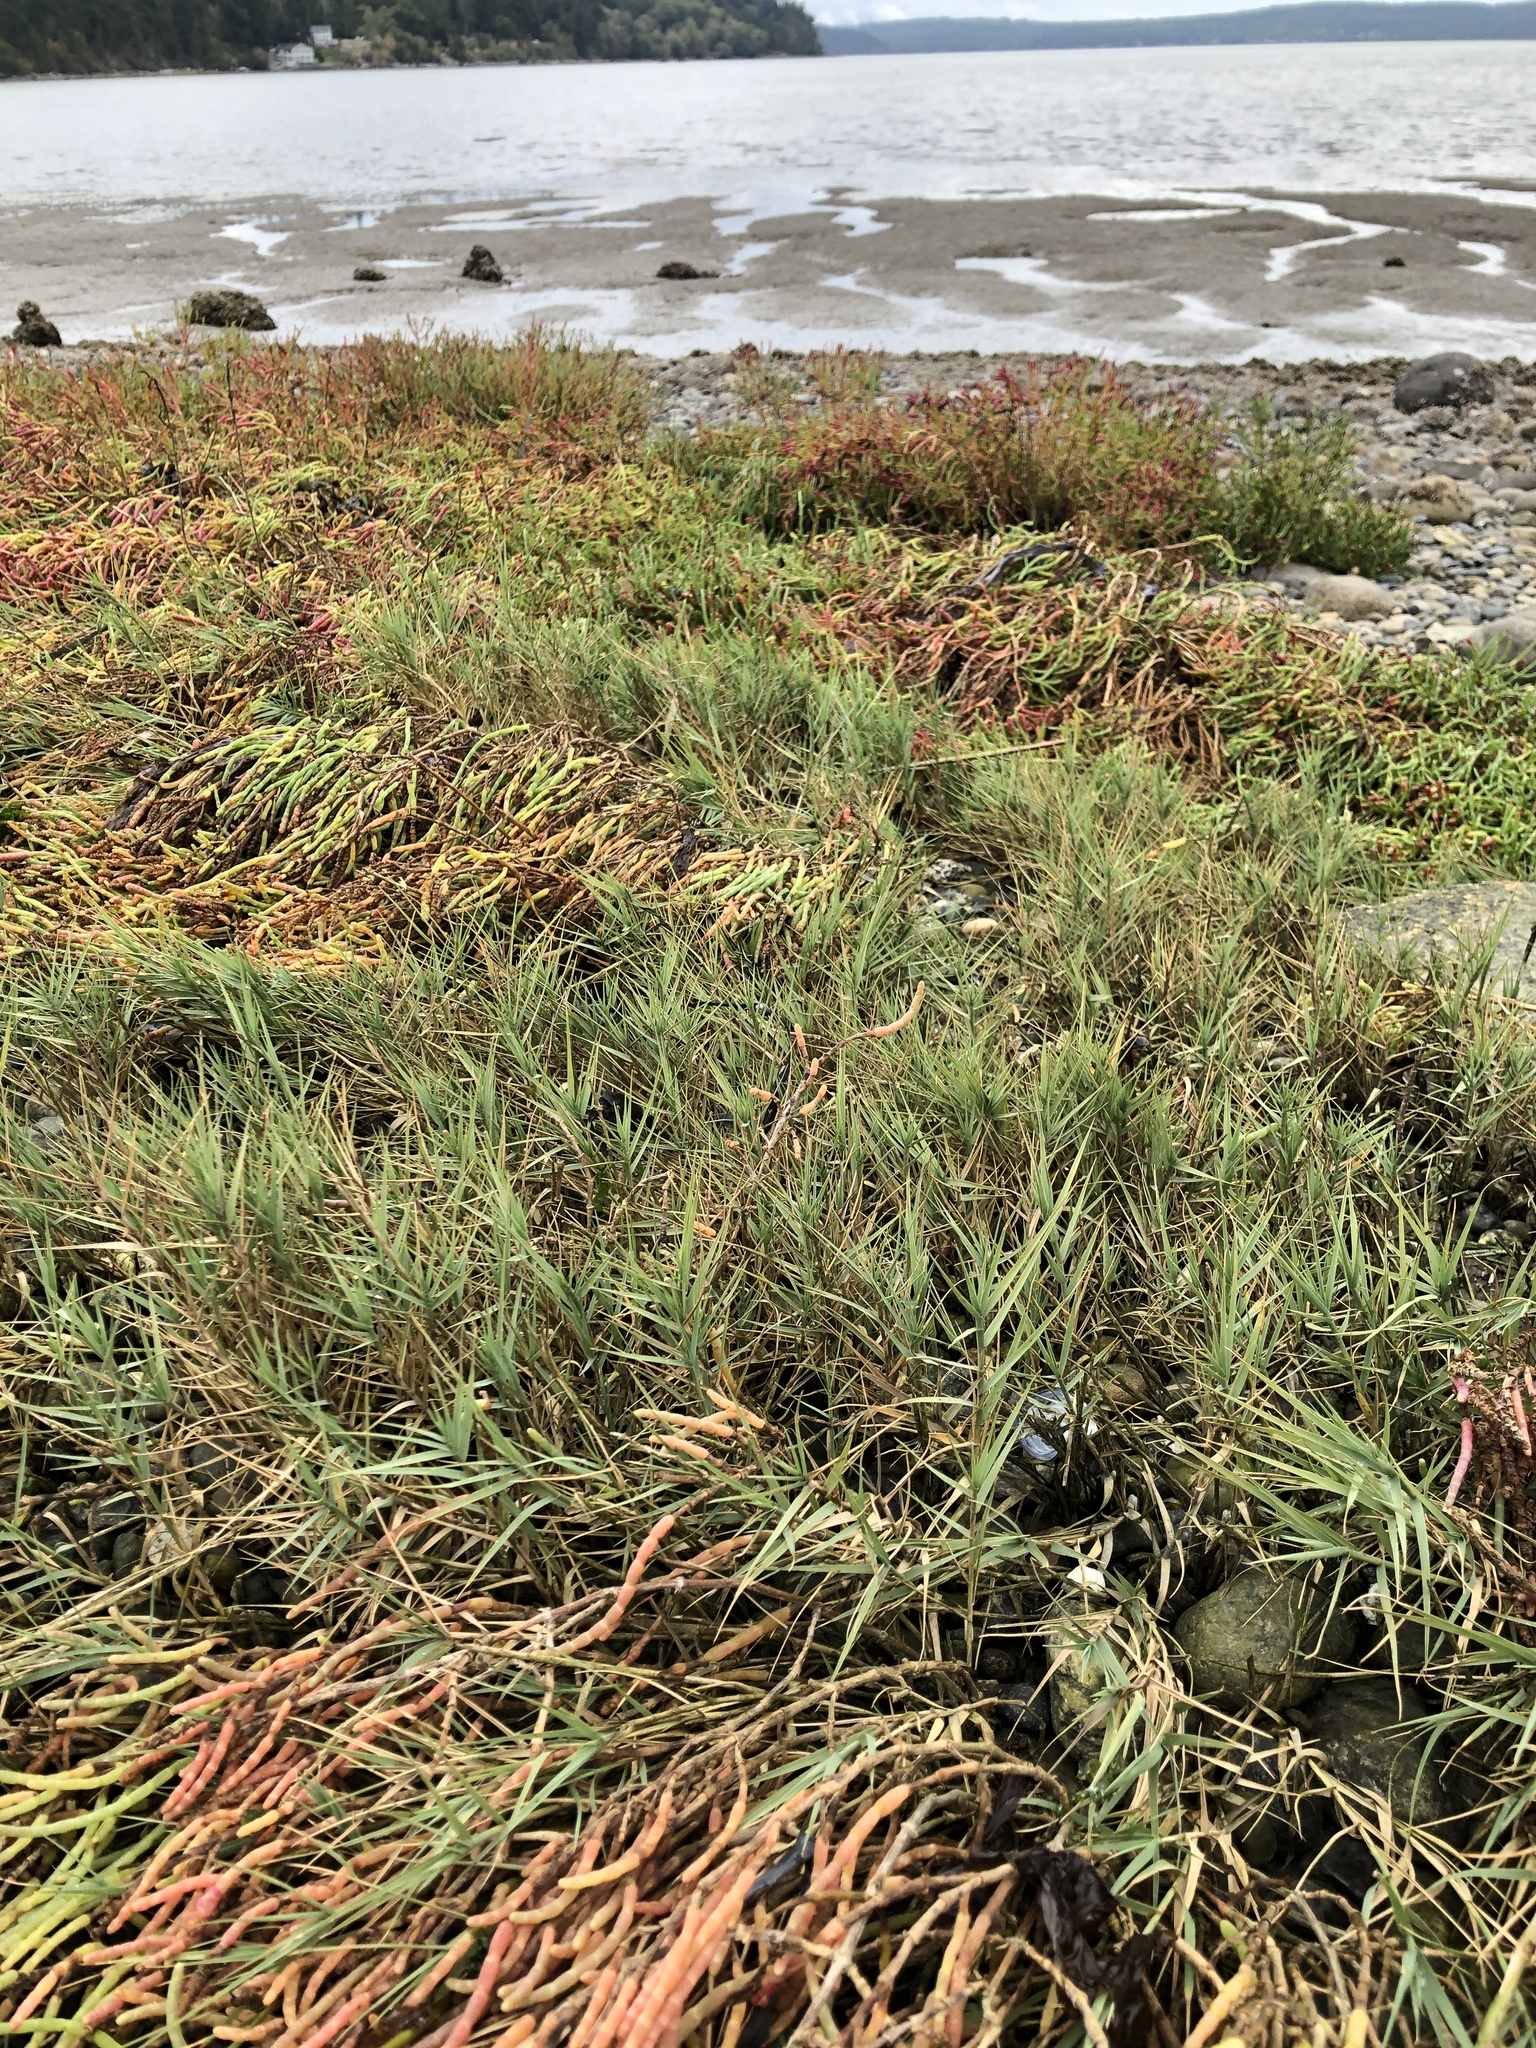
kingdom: Plantae
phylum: Tracheophyta
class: Liliopsida
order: Poales
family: Poaceae
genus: Distichlis
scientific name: Distichlis spicata
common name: Saltgrass
